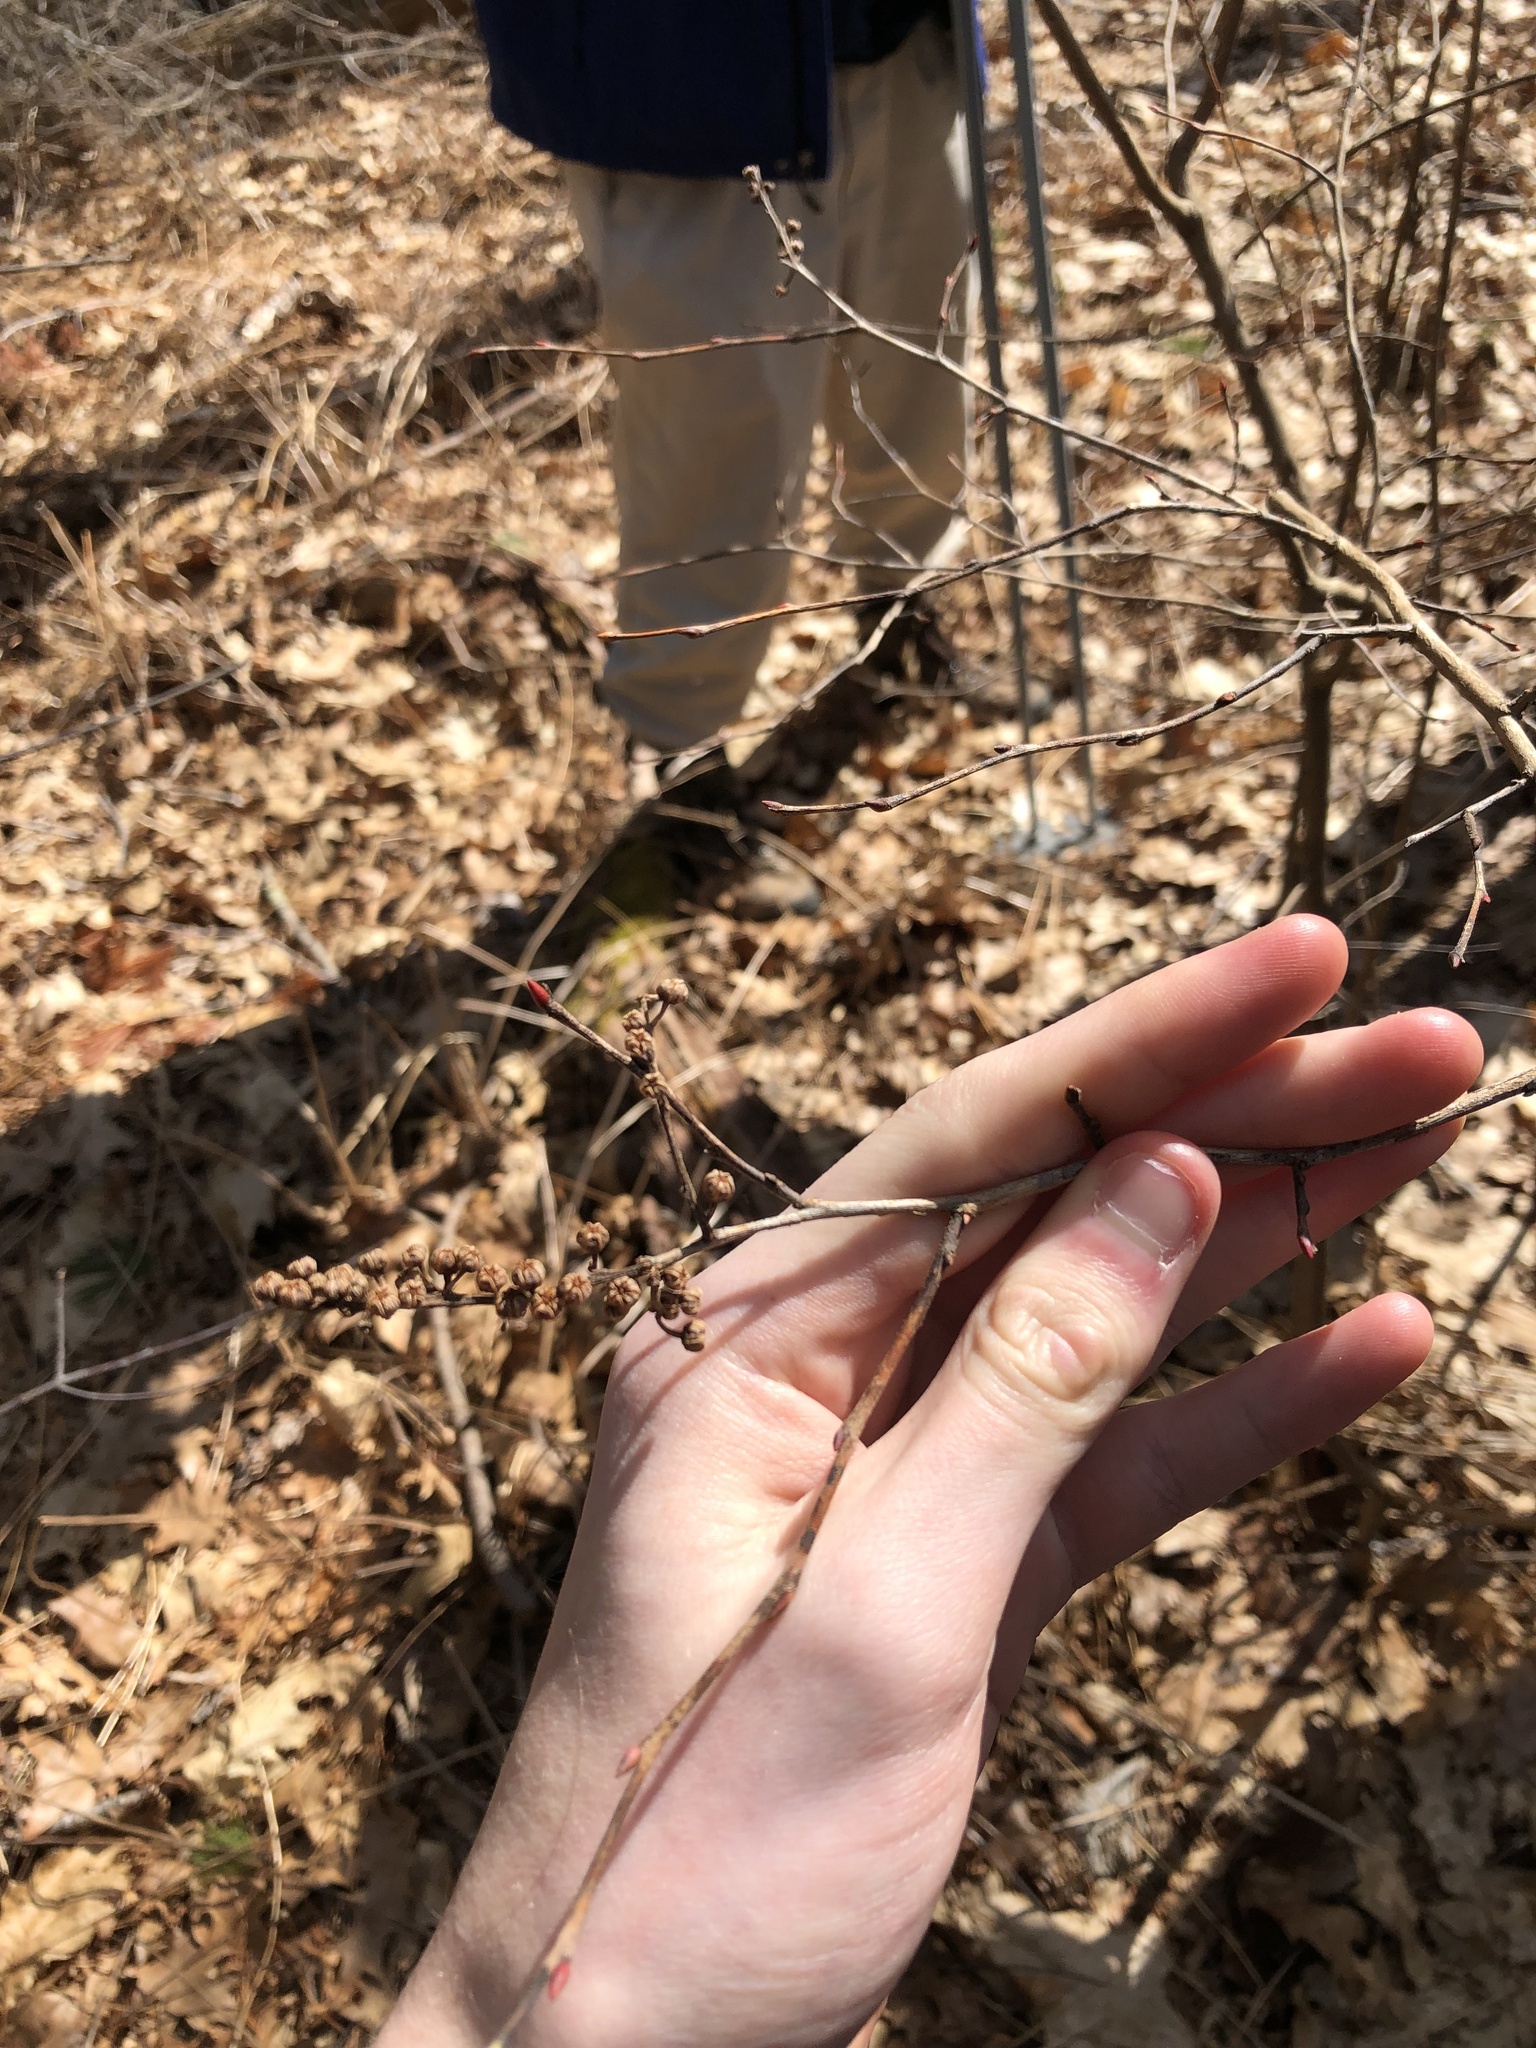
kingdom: Plantae
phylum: Tracheophyta
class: Magnoliopsida
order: Ericales
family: Ericaceae
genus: Lyonia
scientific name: Lyonia ligustrina
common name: Maleberry
